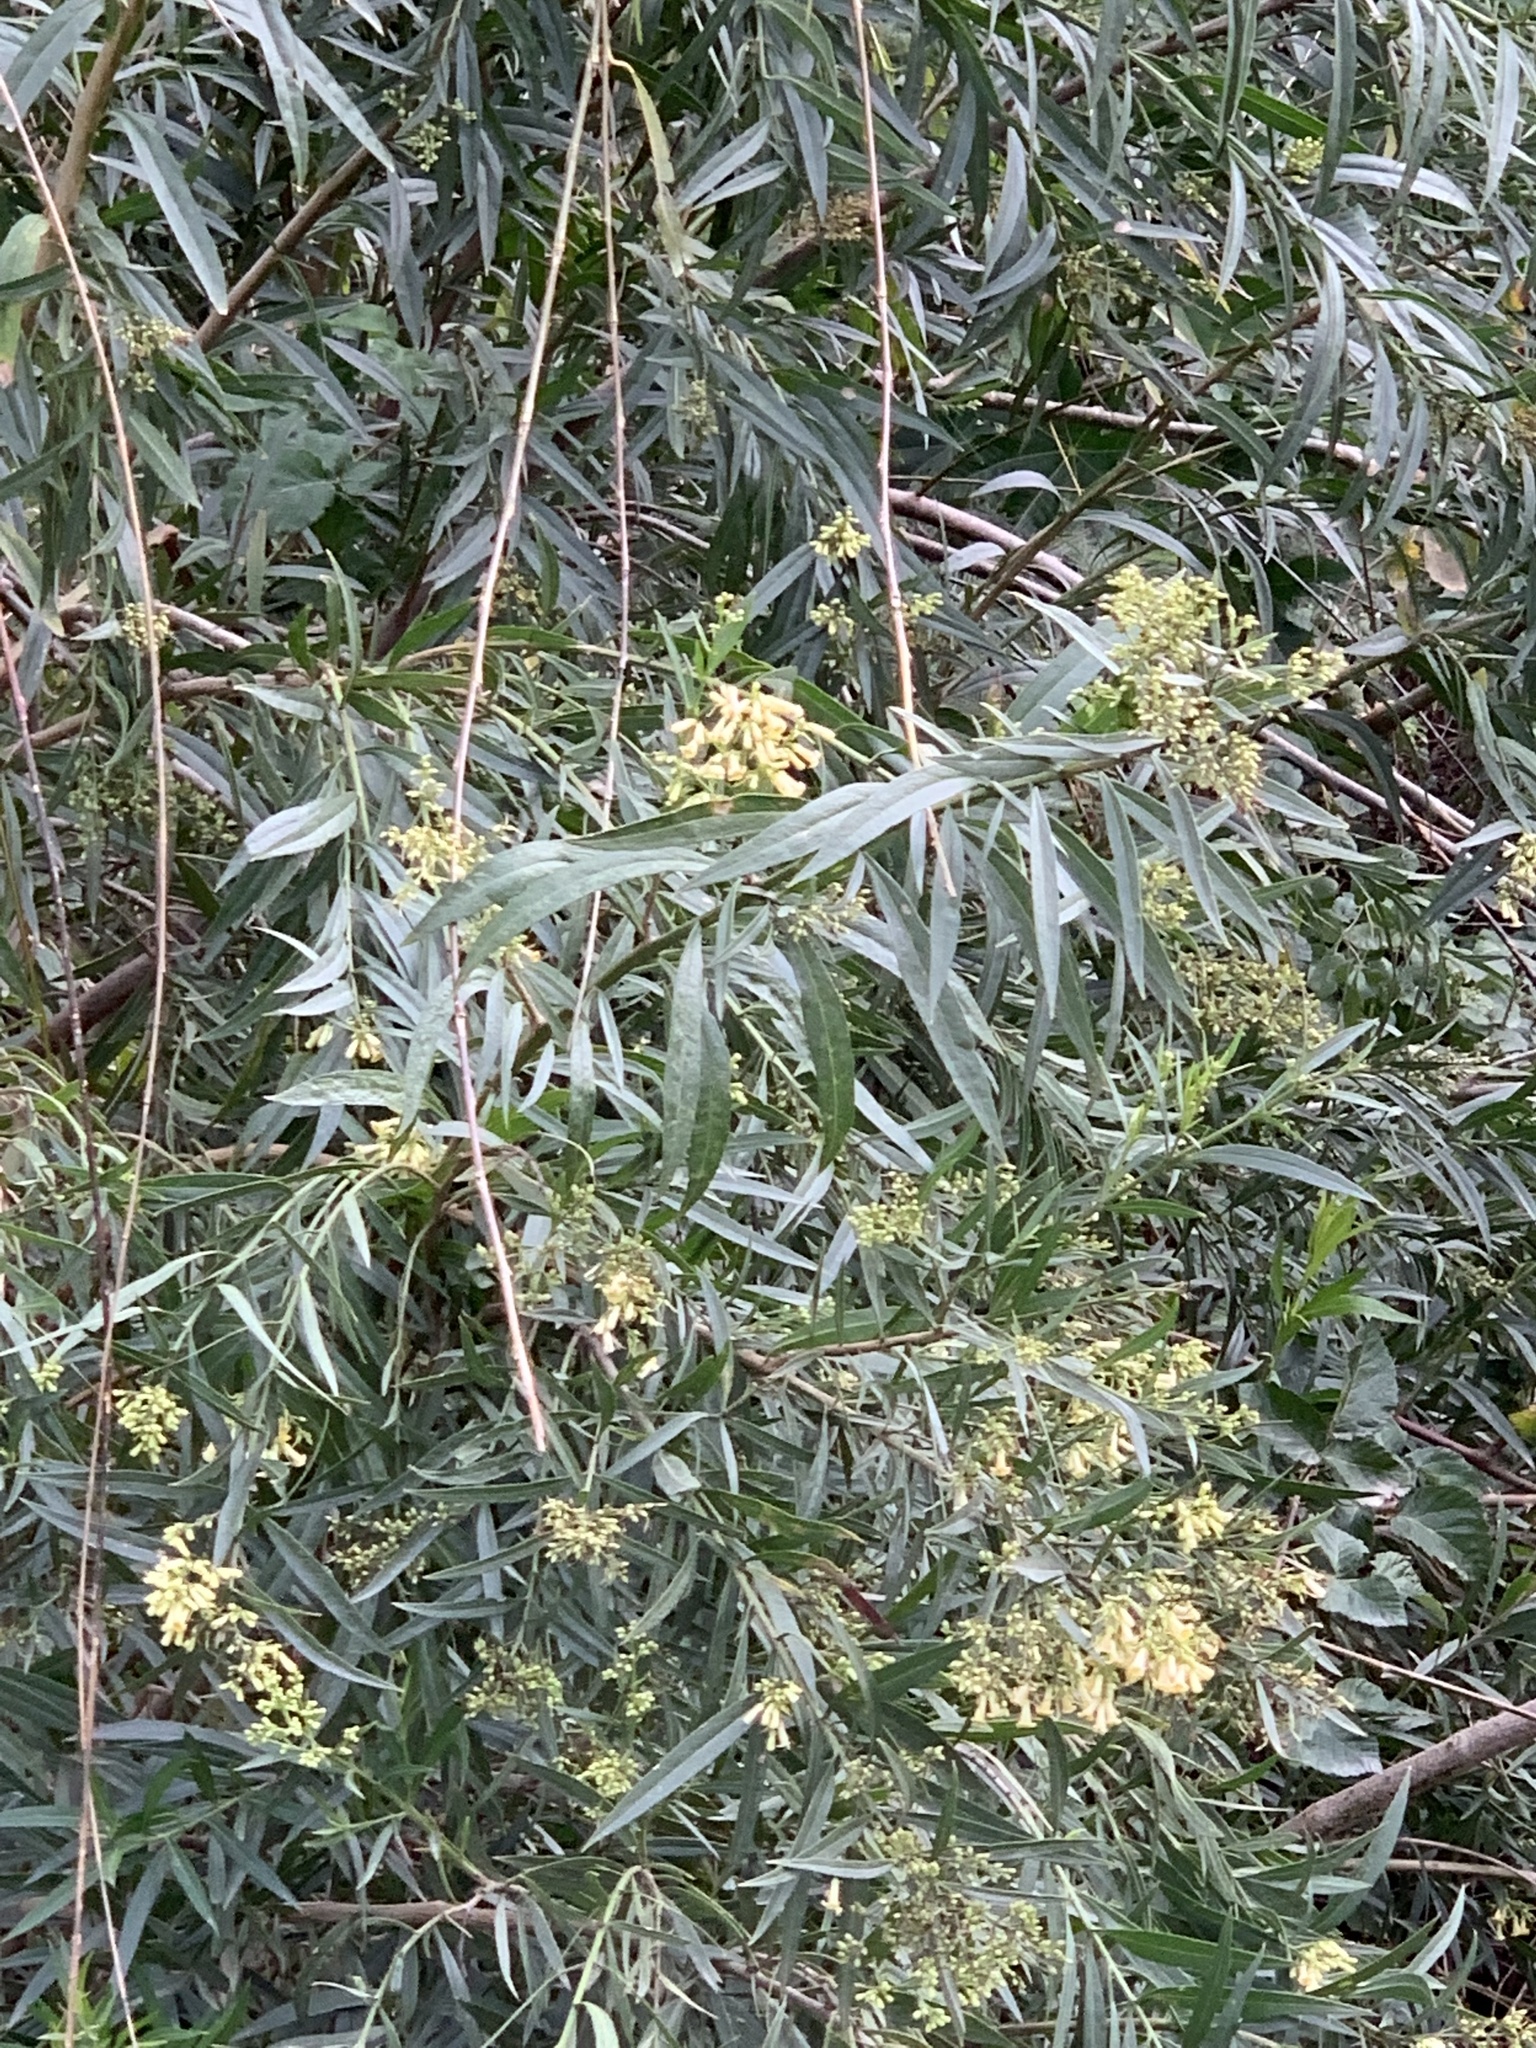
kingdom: Plantae
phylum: Tracheophyta
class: Magnoliopsida
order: Lamiales
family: Scrophulariaceae
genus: Freylinia
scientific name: Freylinia lanceolata
